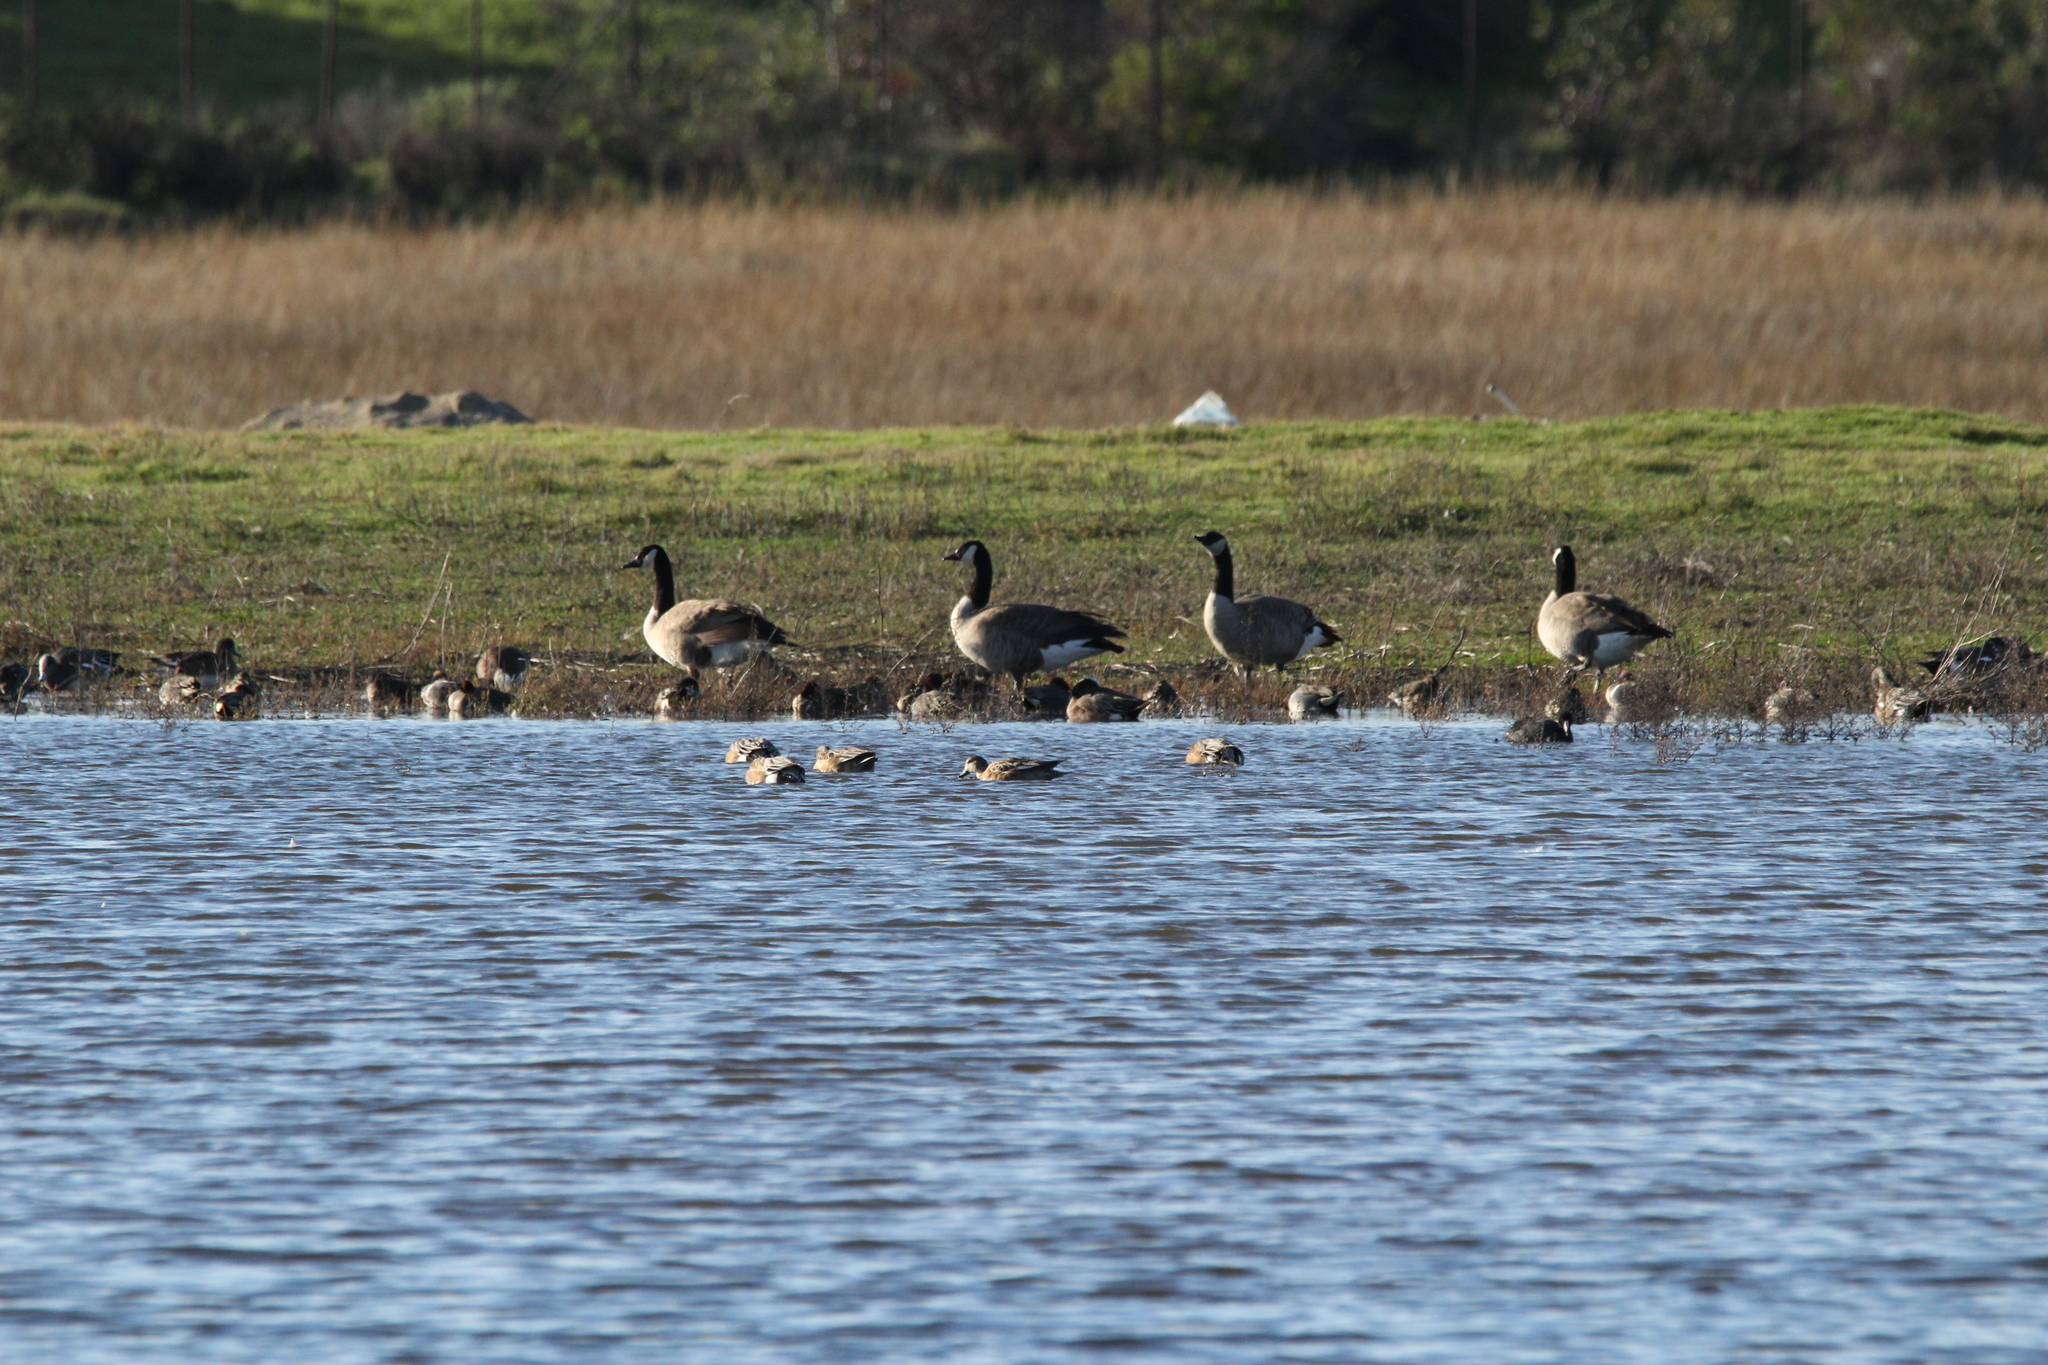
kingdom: Animalia
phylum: Chordata
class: Aves
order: Anseriformes
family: Anatidae
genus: Branta
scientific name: Branta canadensis
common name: Canada goose
